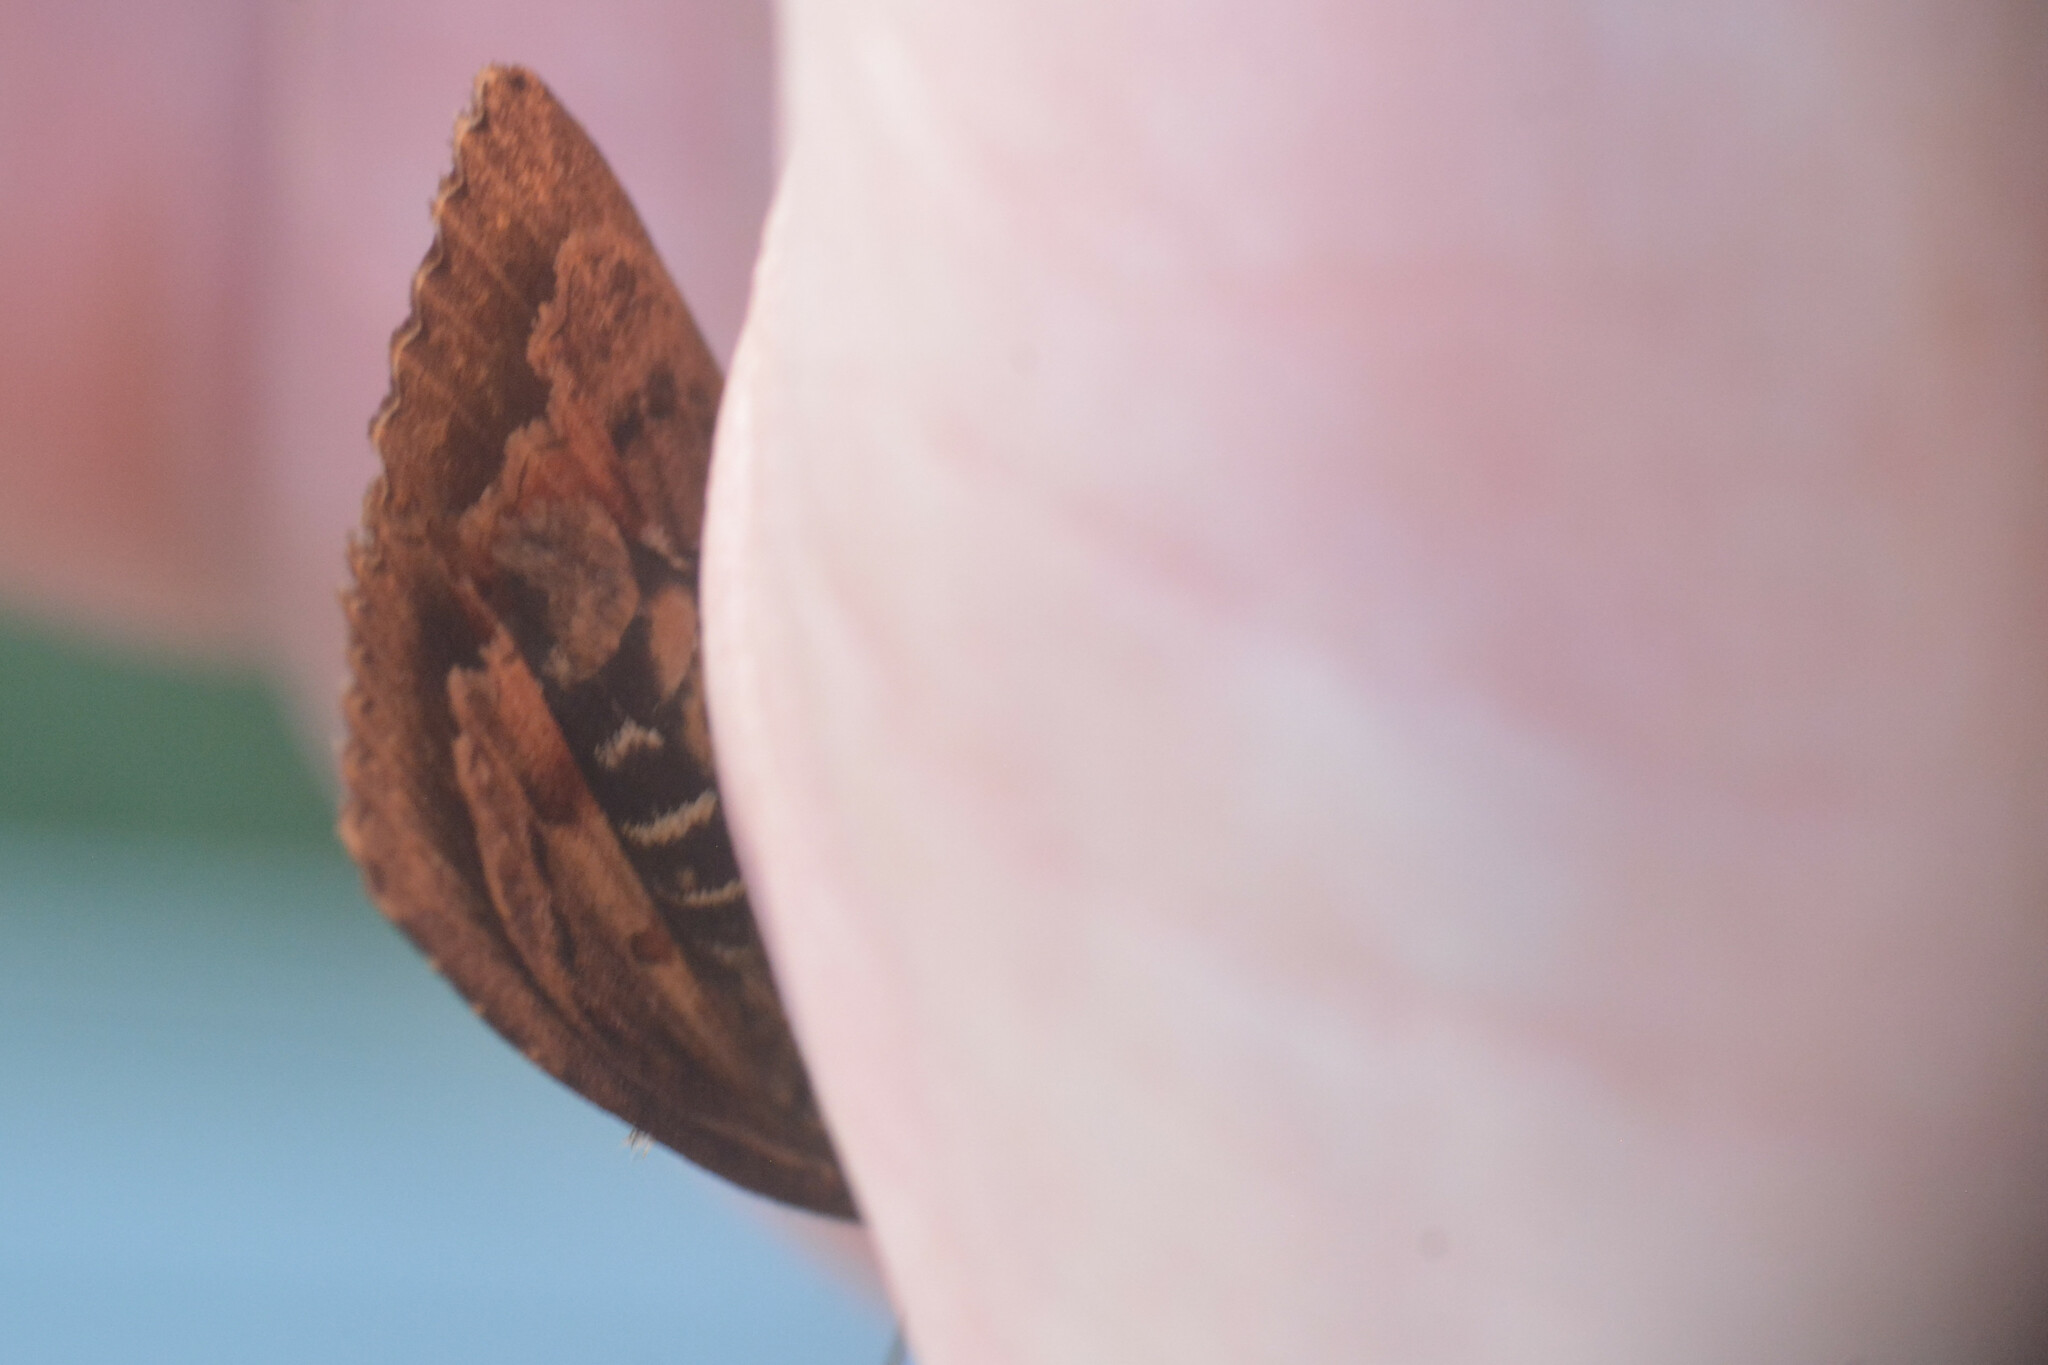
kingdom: Animalia
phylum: Arthropoda
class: Insecta
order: Lepidoptera
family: Noctuidae
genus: Amphipyra
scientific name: Amphipyra pyramidea
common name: Copper underwing
